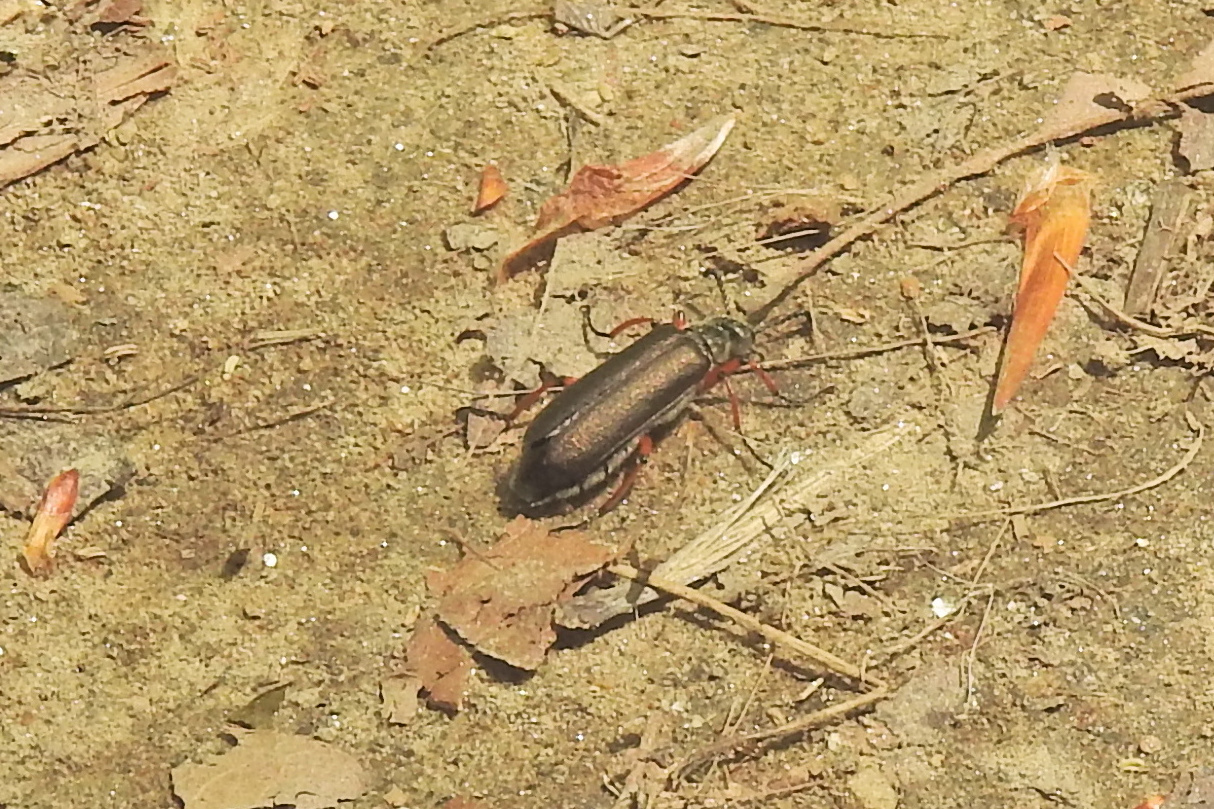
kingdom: Animalia
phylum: Arthropoda
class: Insecta
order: Coleoptera
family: Meloidae
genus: Lytta
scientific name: Lytta aenea
